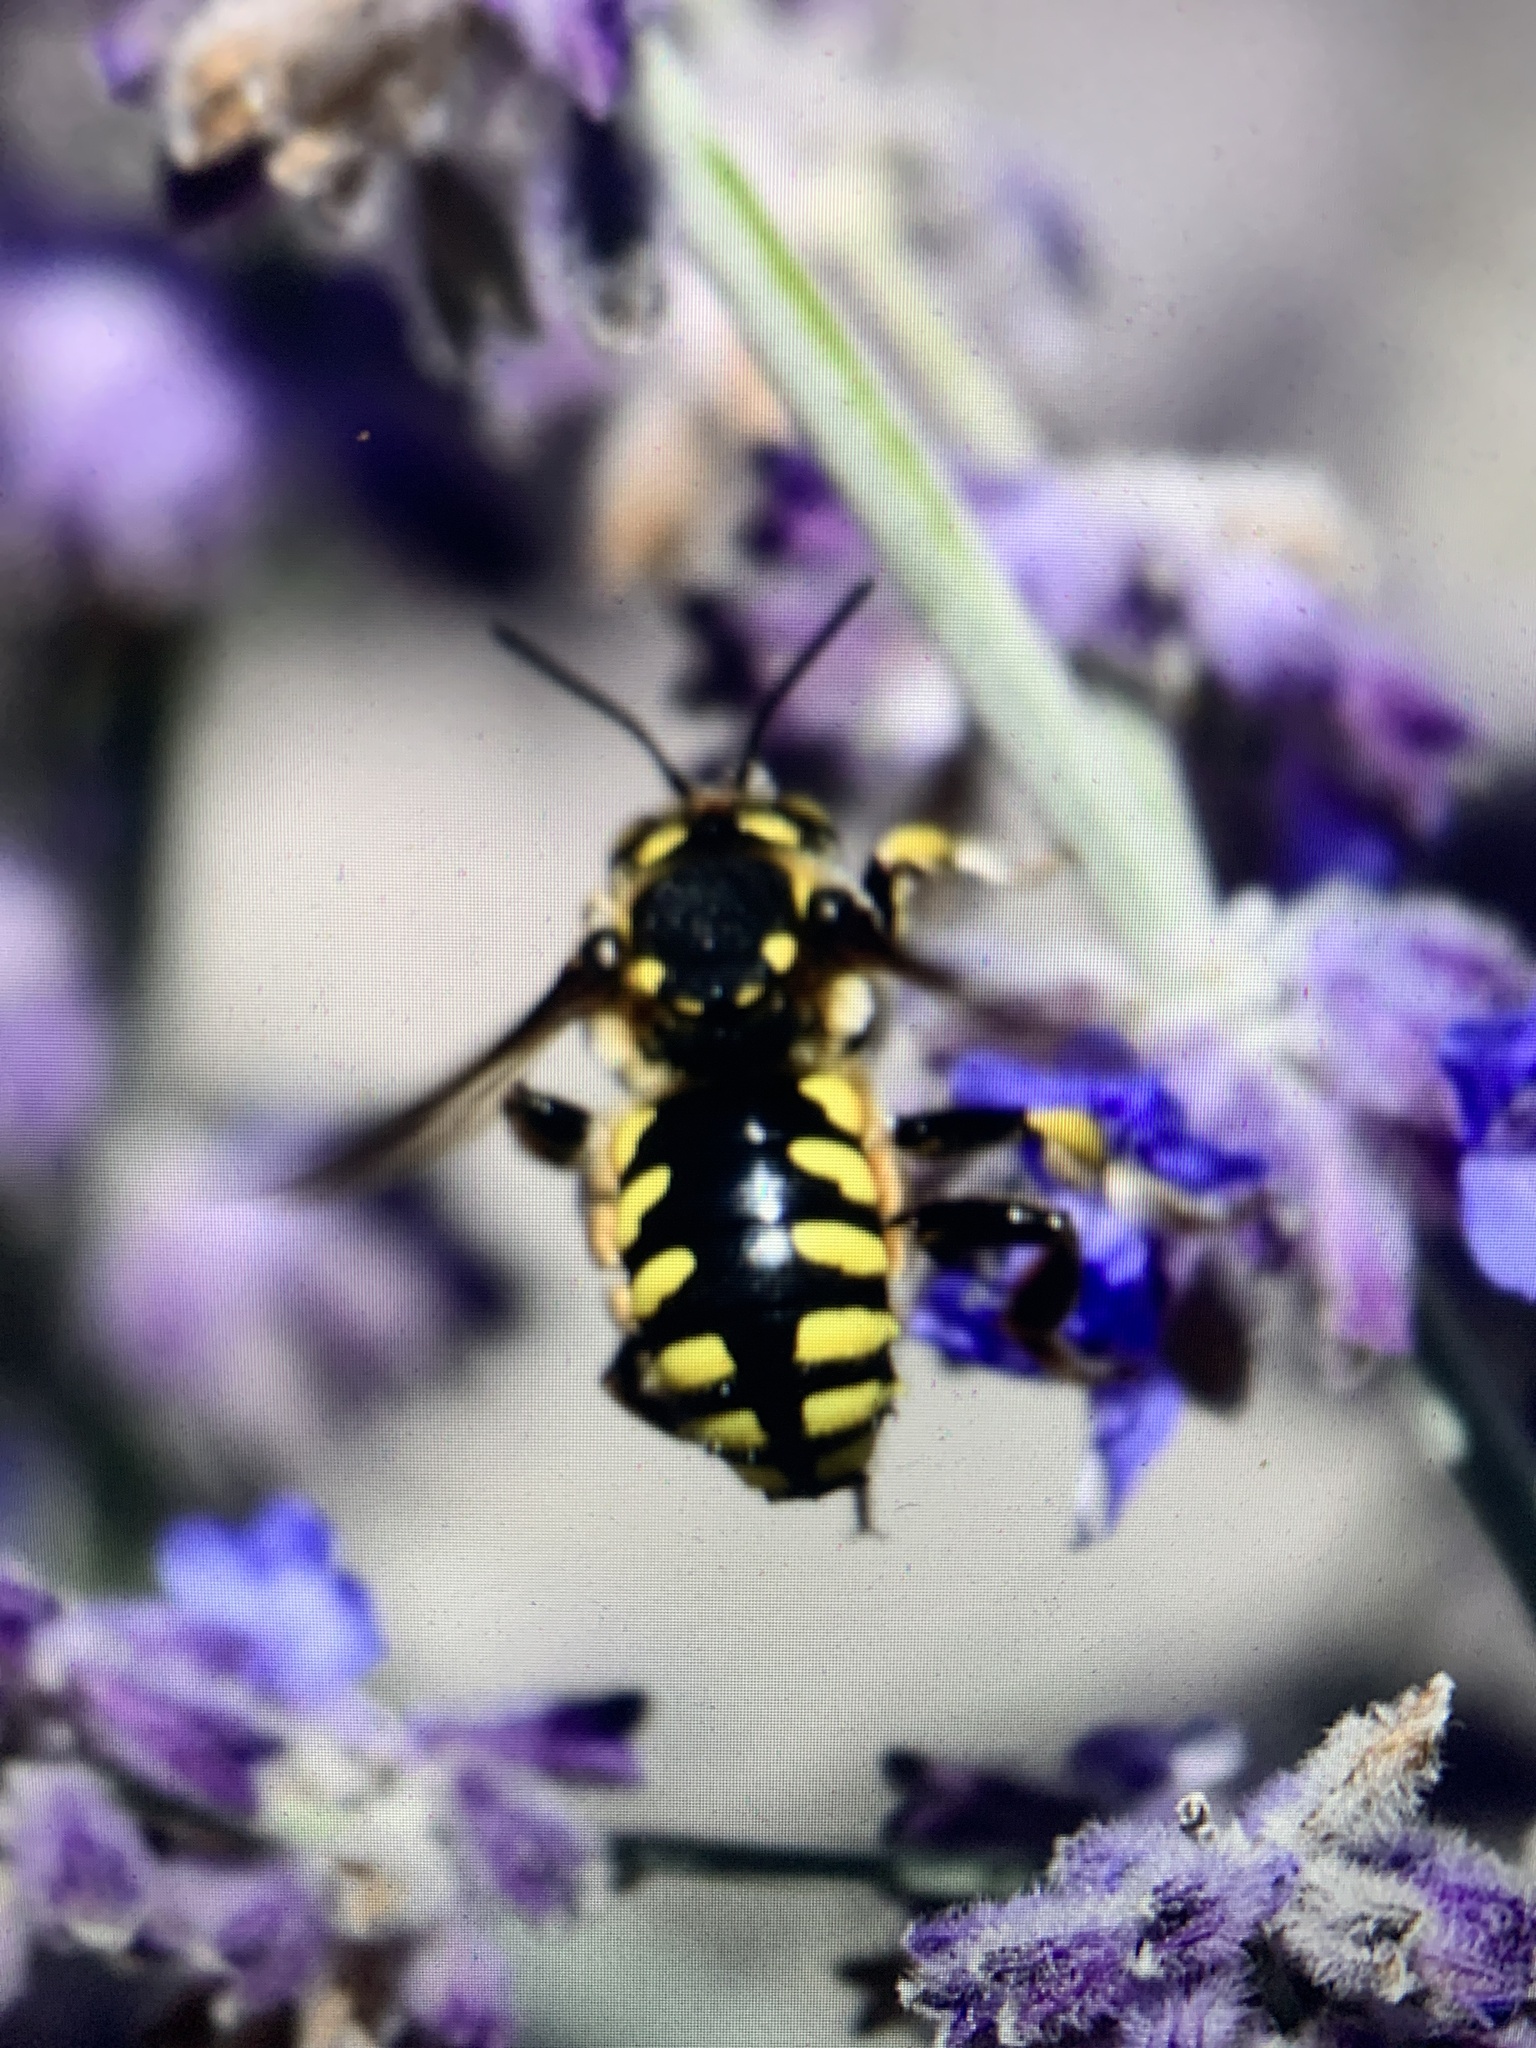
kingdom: Animalia
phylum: Arthropoda
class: Insecta
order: Hymenoptera
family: Megachilidae
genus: Anthidium
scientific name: Anthidium florentinum
